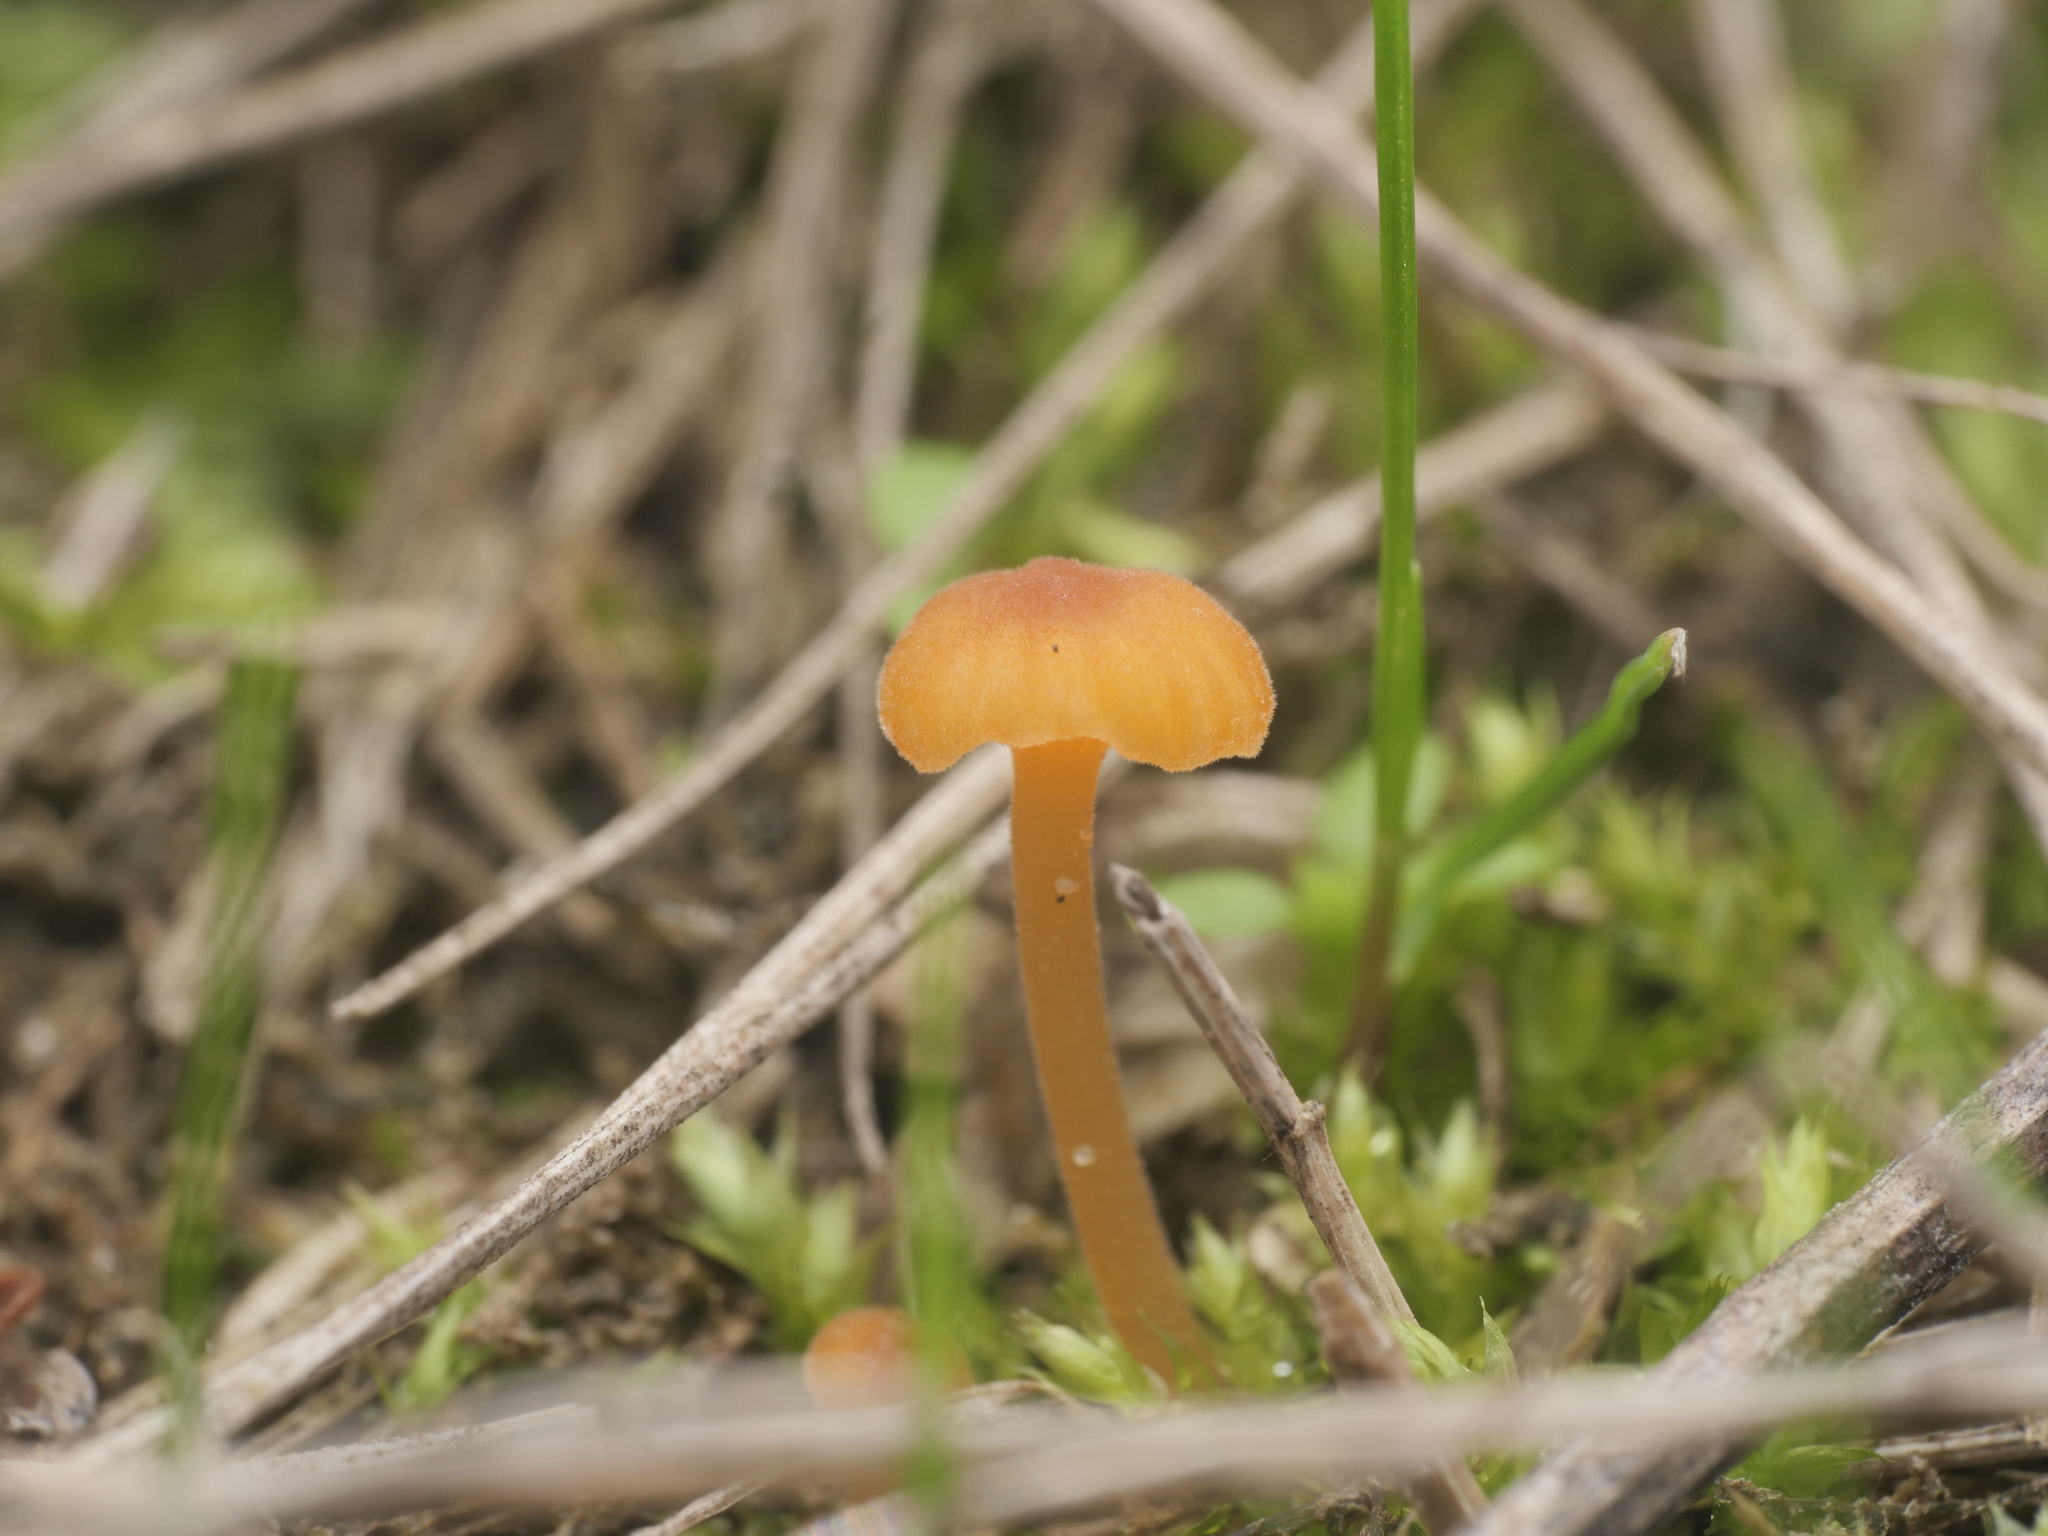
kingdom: Fungi
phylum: Basidiomycota
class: Agaricomycetes
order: Hymenochaetales
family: Rickenellaceae
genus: Rickenella
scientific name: Rickenella fibula
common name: Orange mosscap
